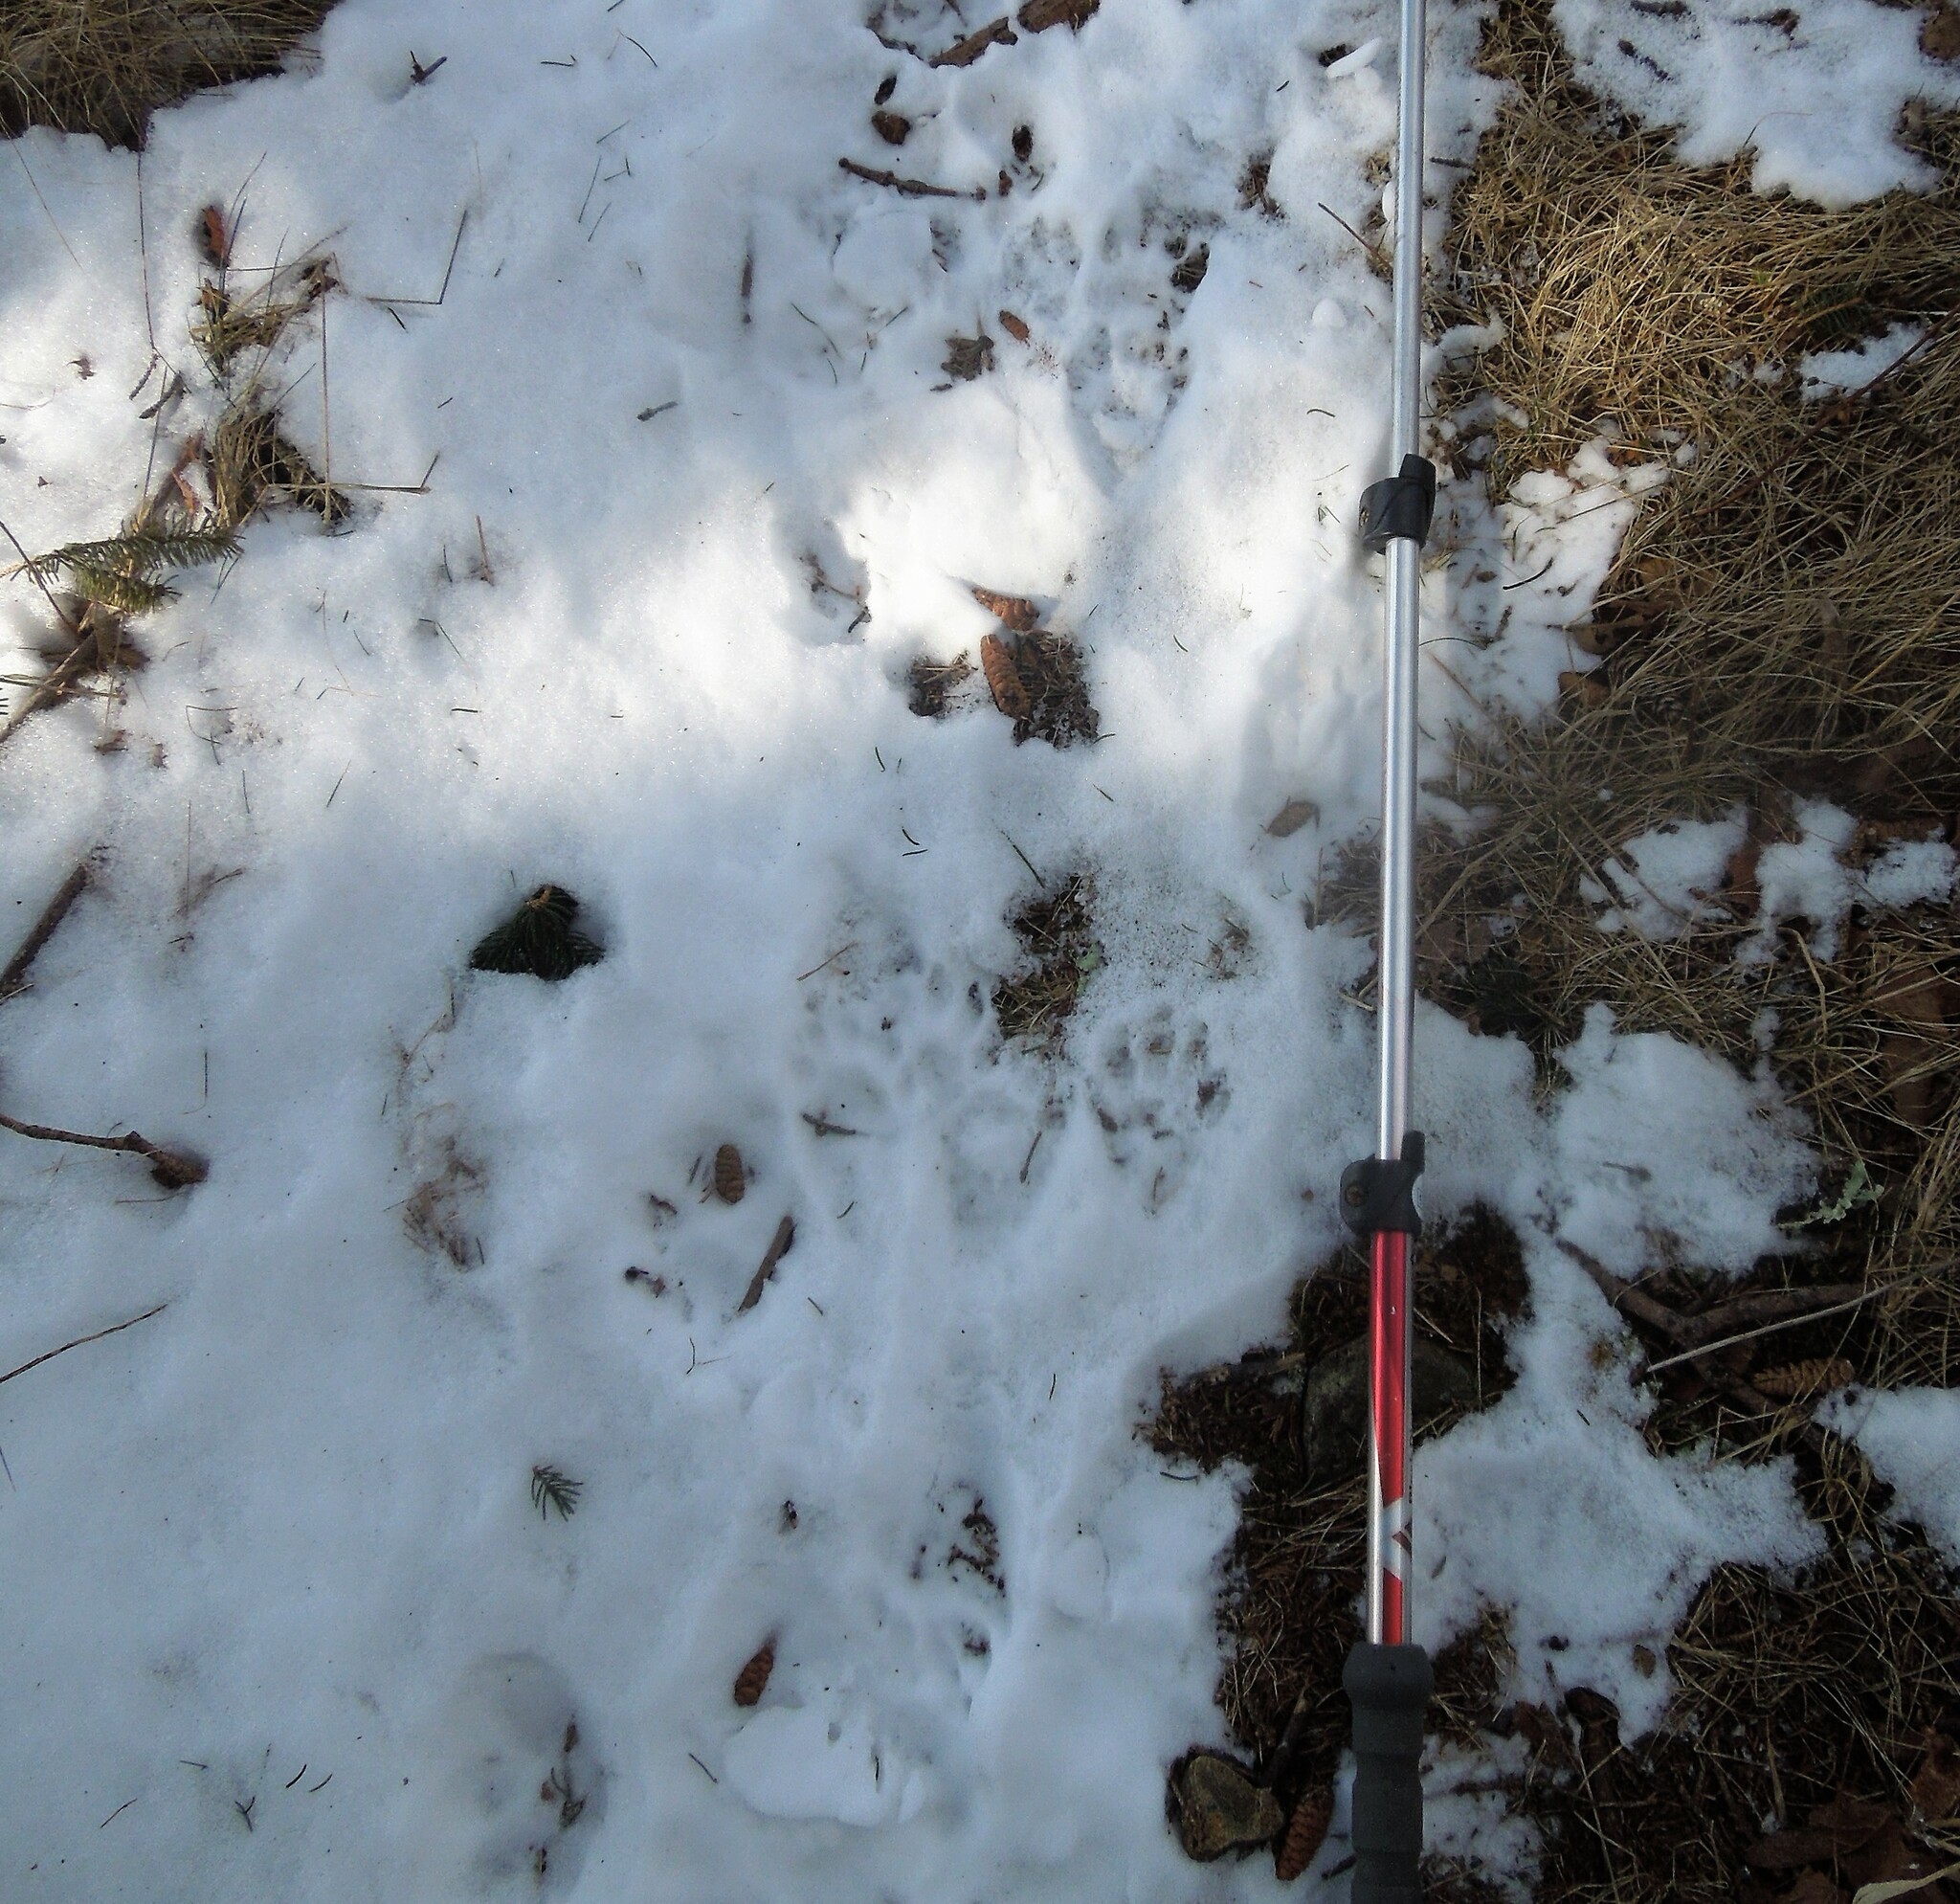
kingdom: Animalia
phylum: Chordata
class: Mammalia
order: Carnivora
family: Procyonidae
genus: Procyon
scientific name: Procyon lotor
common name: Raccoon
